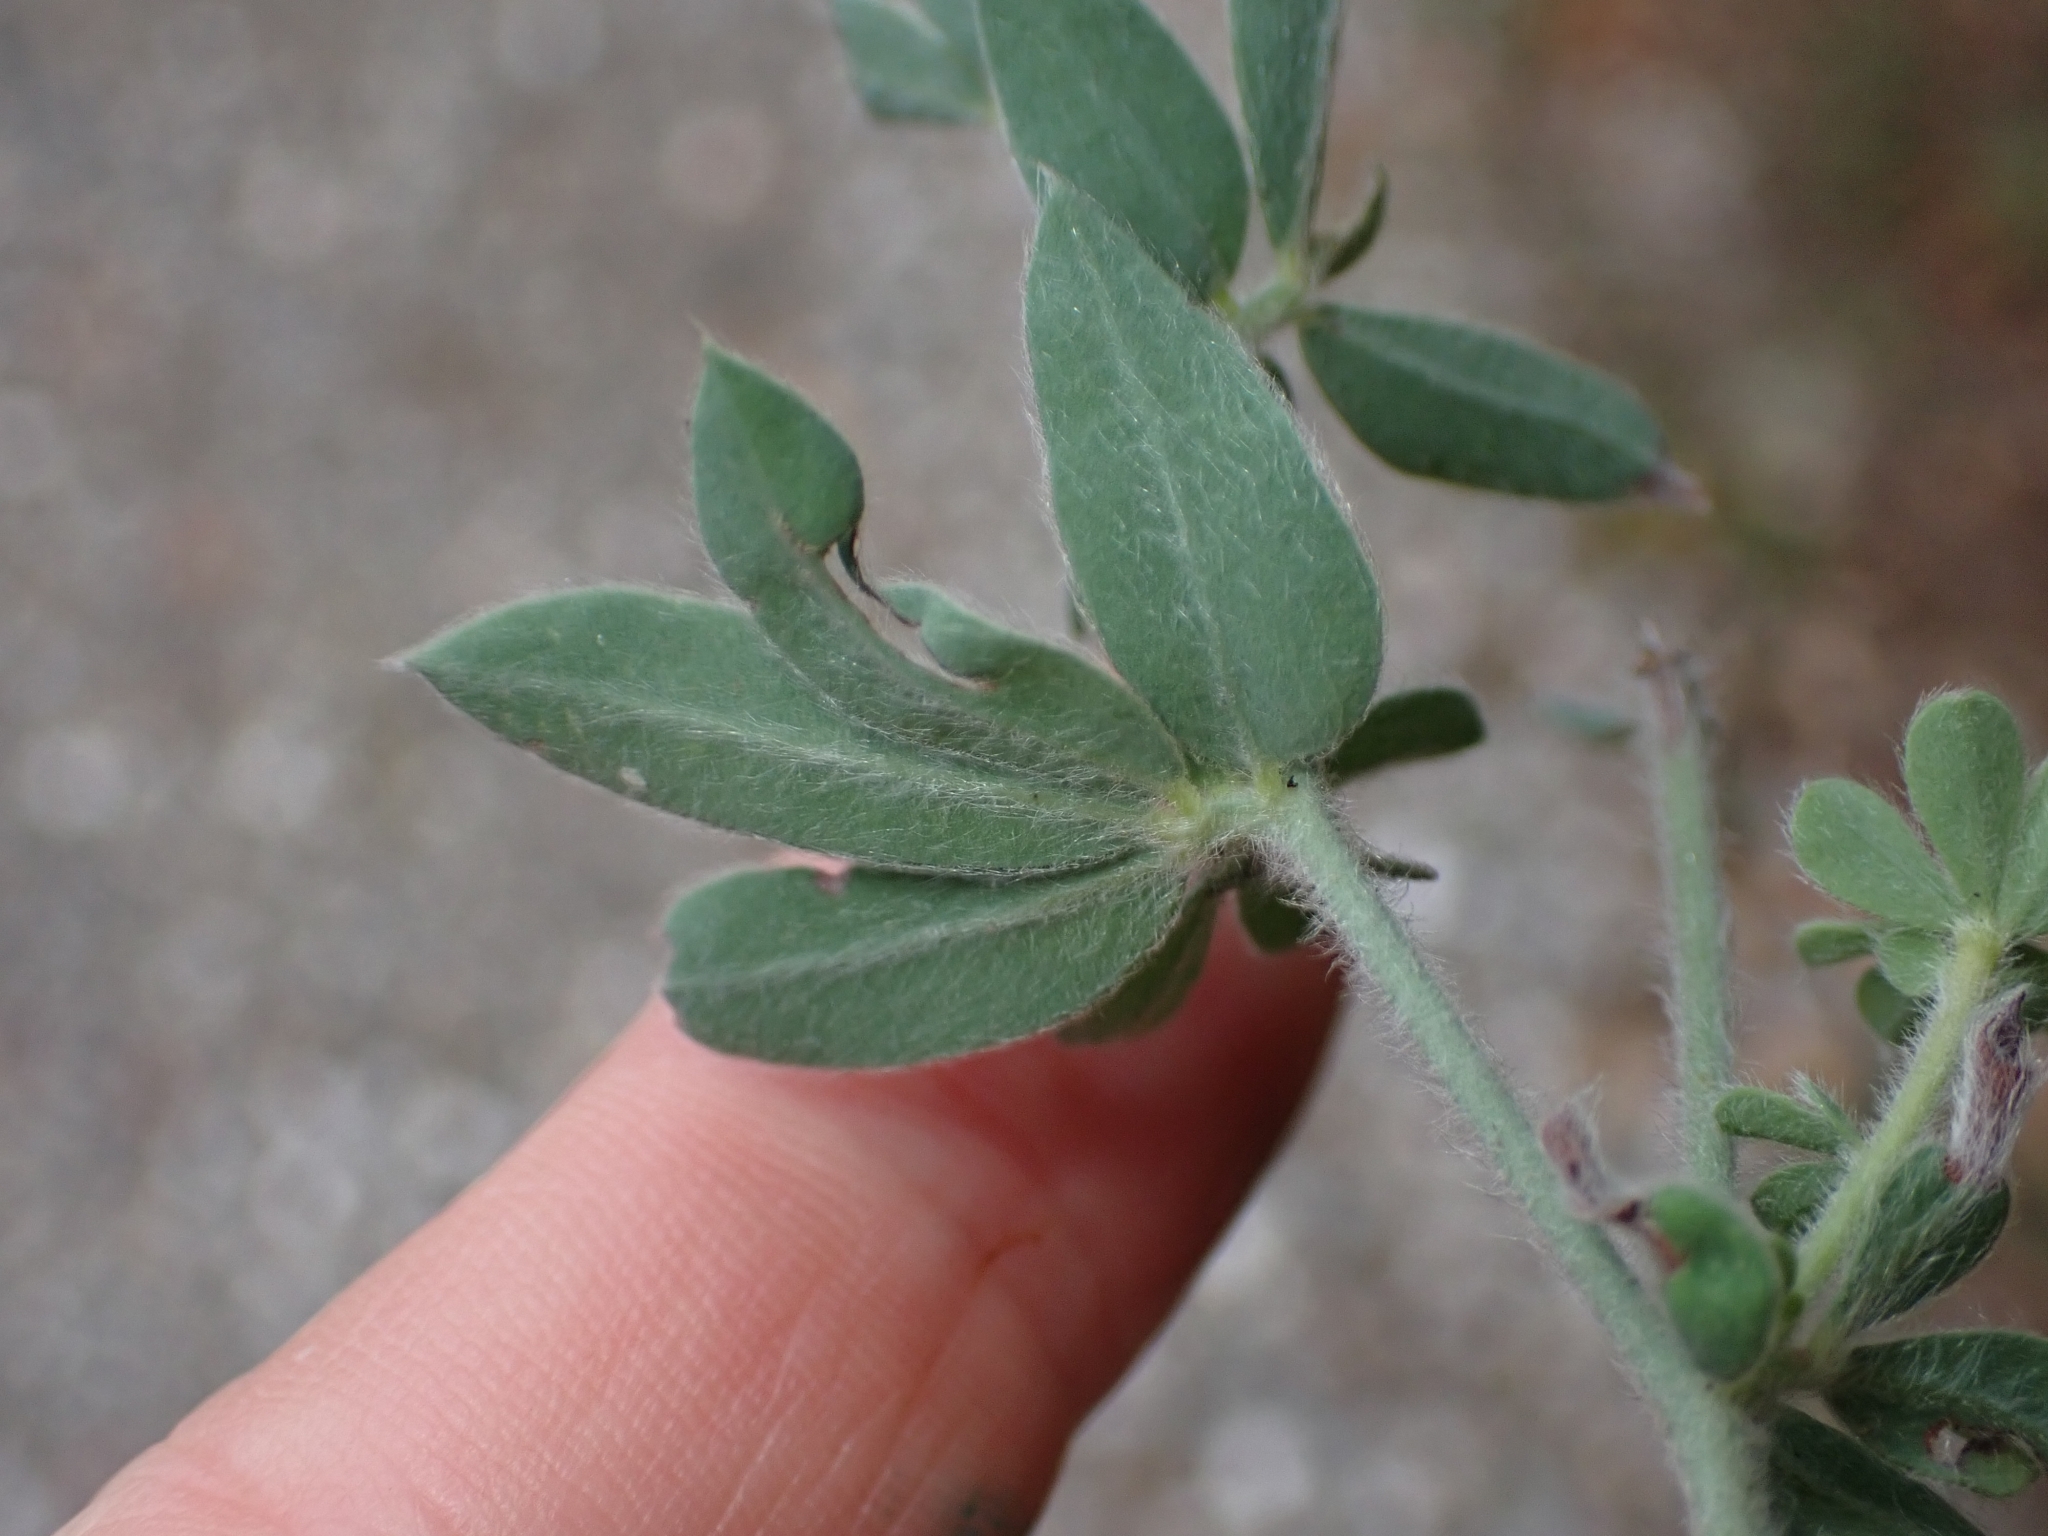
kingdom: Plantae
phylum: Tracheophyta
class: Magnoliopsida
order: Fabales
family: Fabaceae
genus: Lotus
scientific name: Lotus hirsutus
